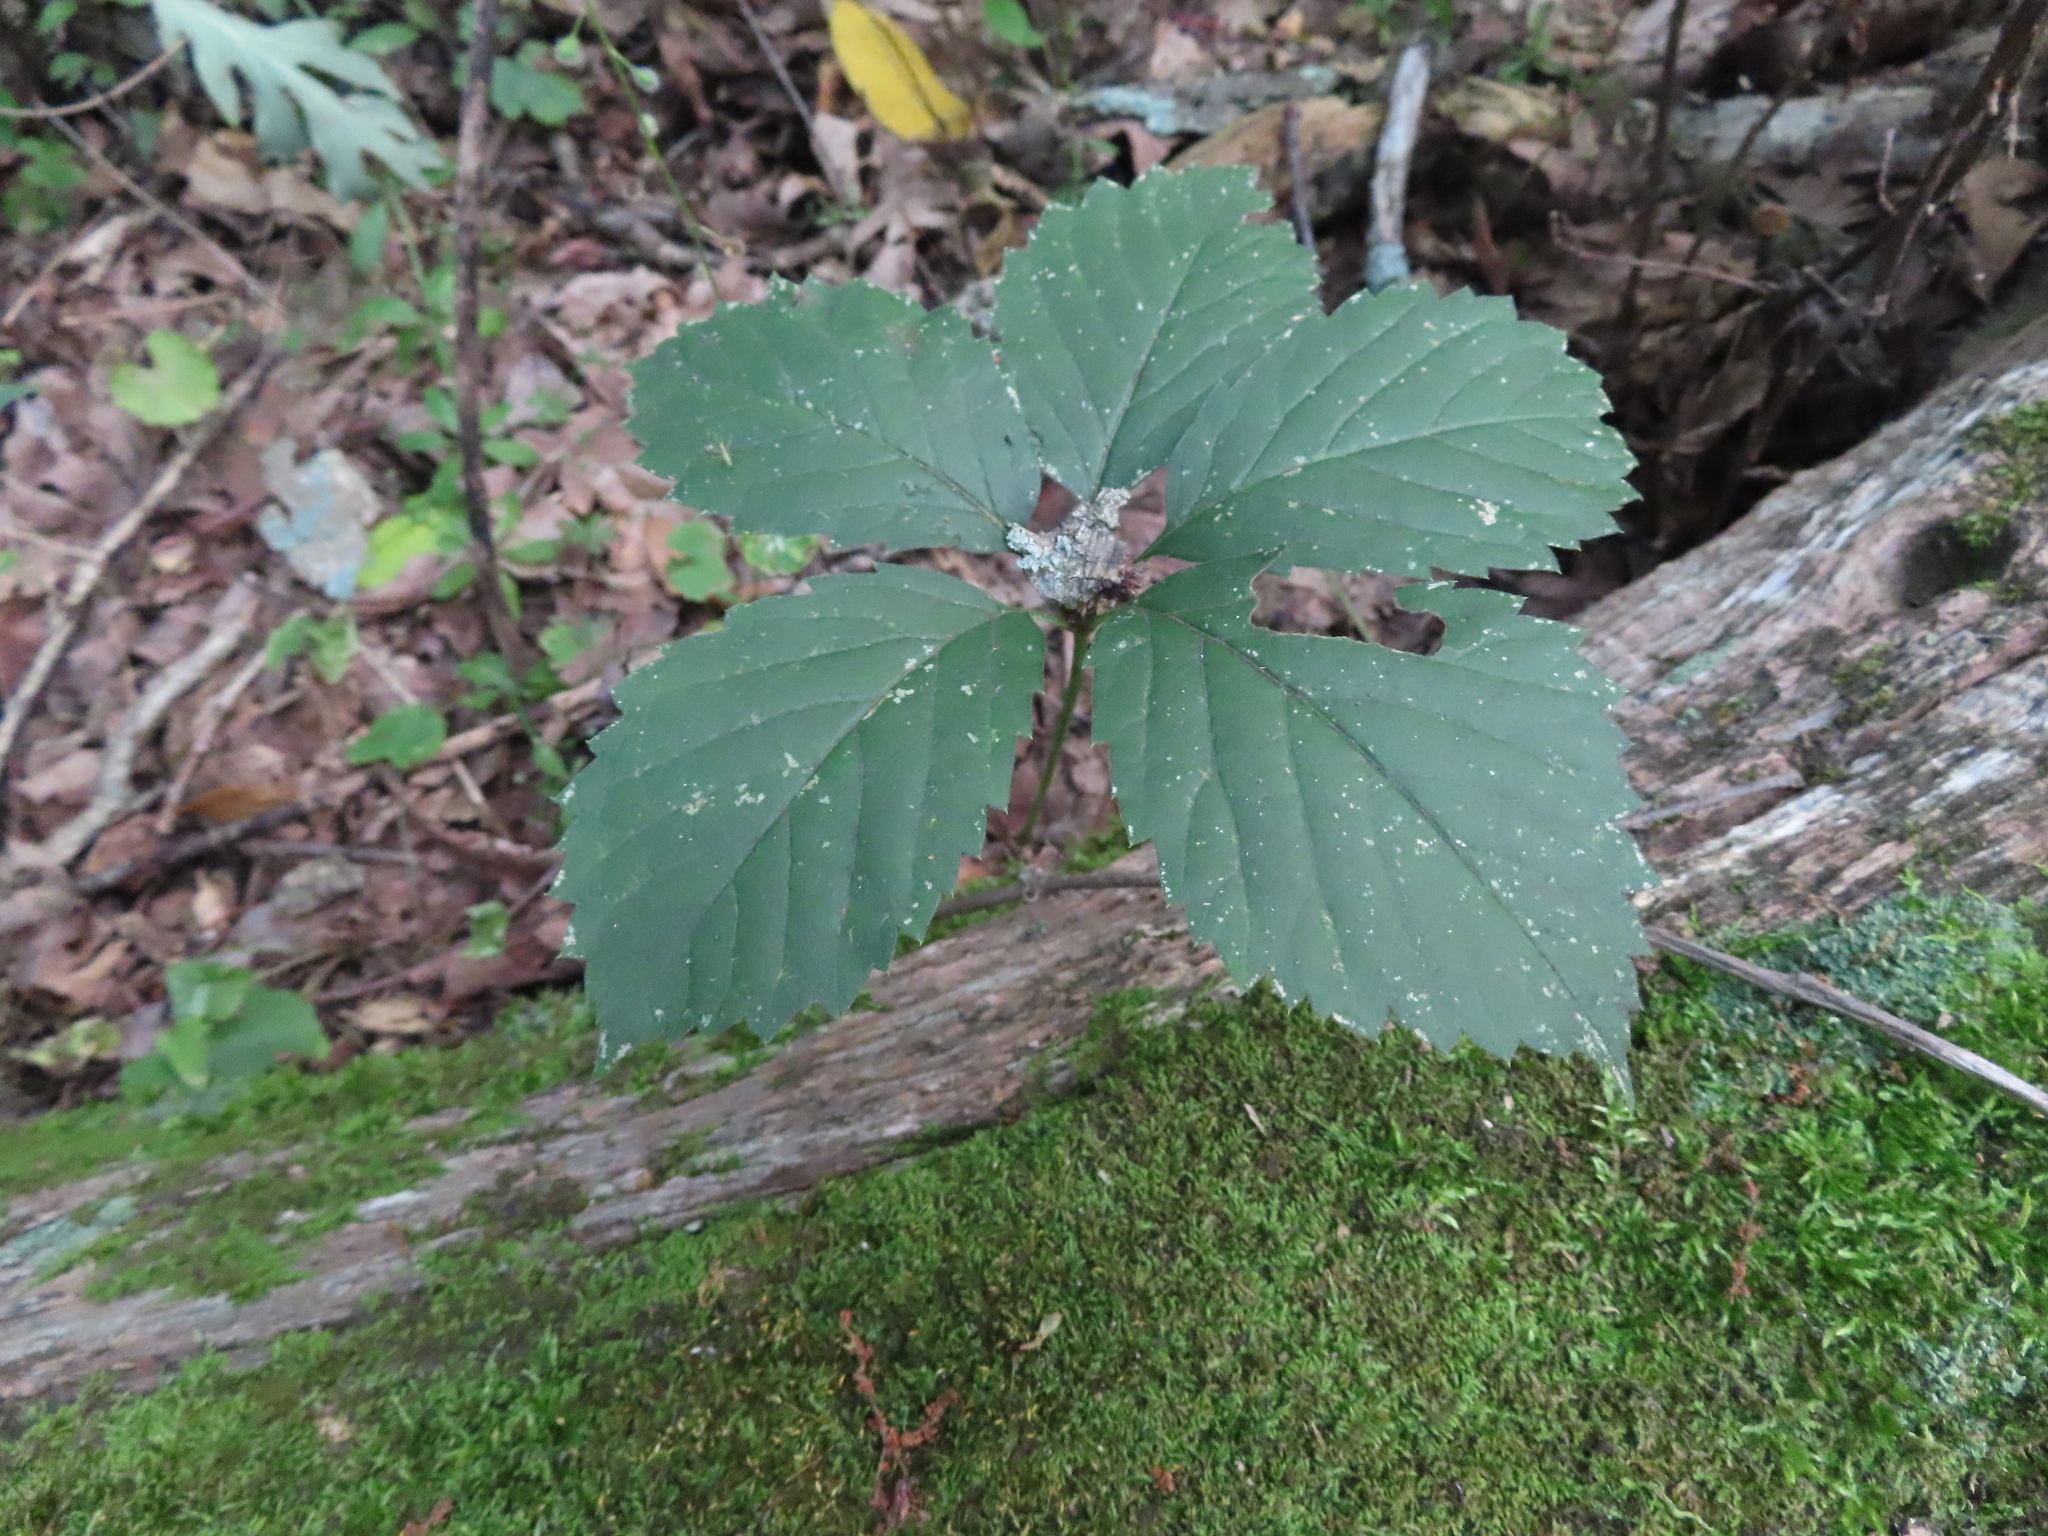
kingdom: Plantae
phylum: Tracheophyta
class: Magnoliopsida
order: Vitales
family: Vitaceae
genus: Parthenocissus
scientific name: Parthenocissus inserta
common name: False virginia-creeper
